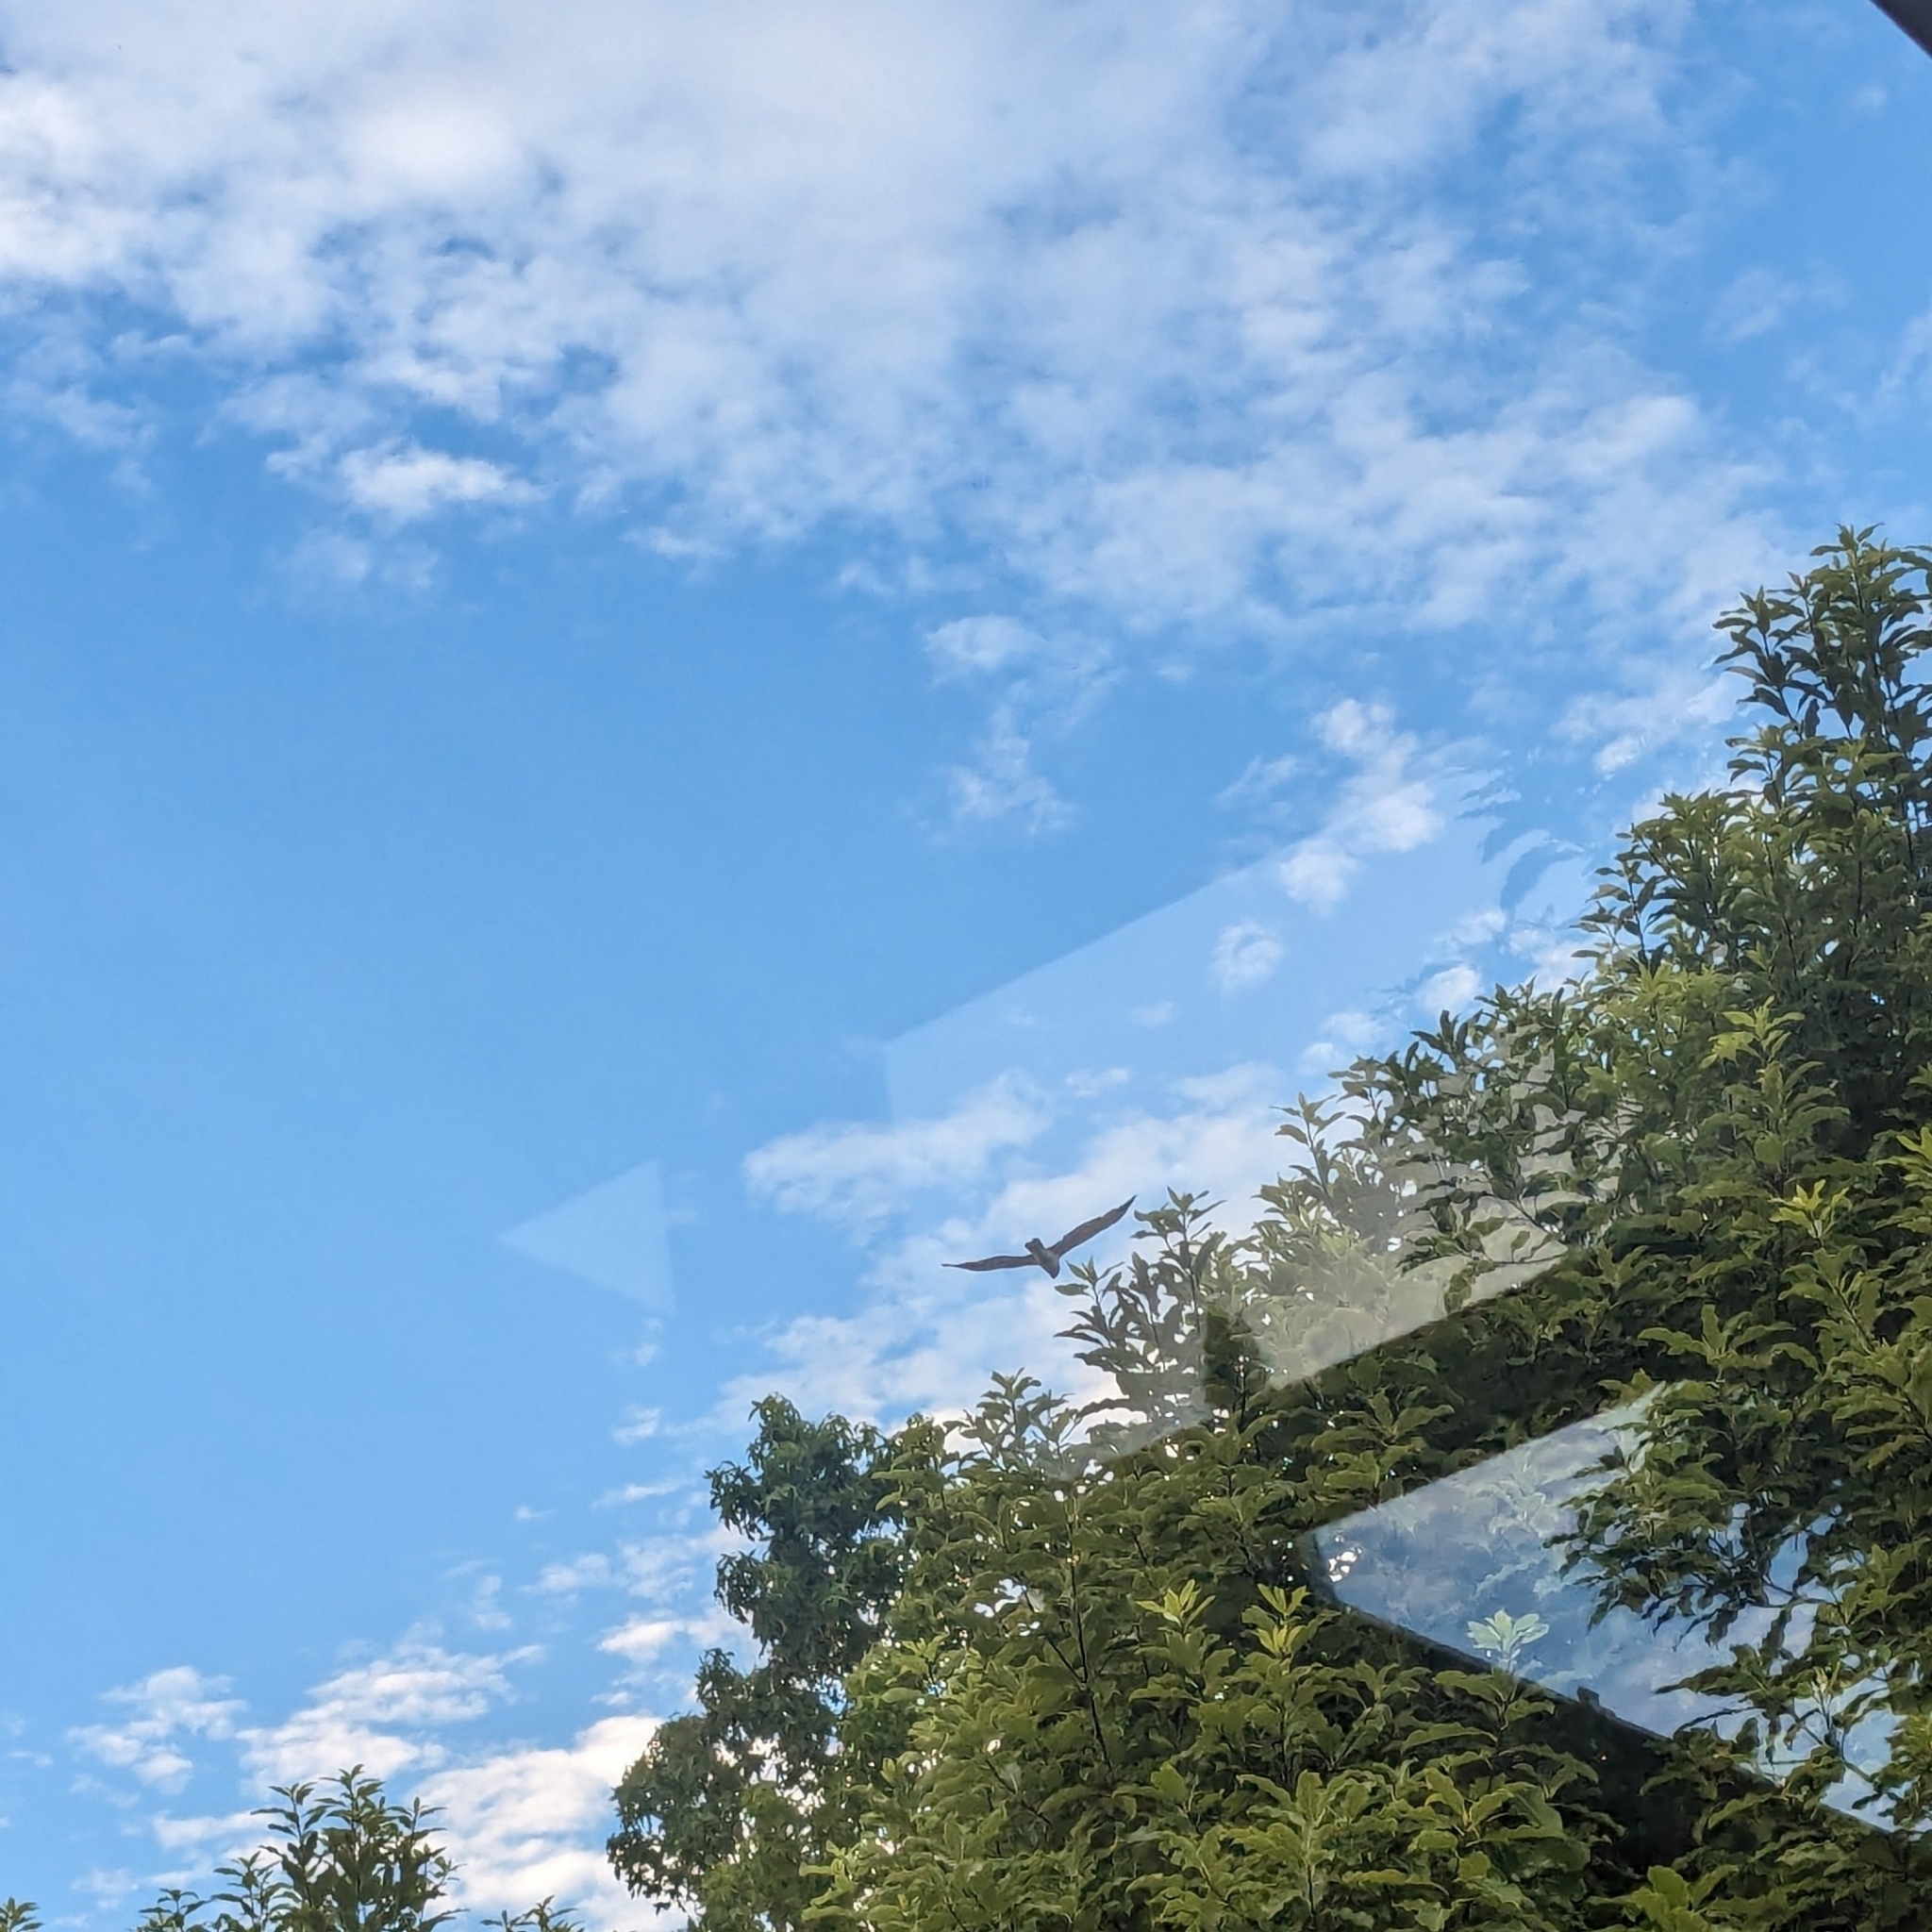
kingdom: Animalia
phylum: Chordata
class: Aves
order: Accipitriformes
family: Accipitridae
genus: Circus
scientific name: Circus approximans
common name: Swamp harrier
